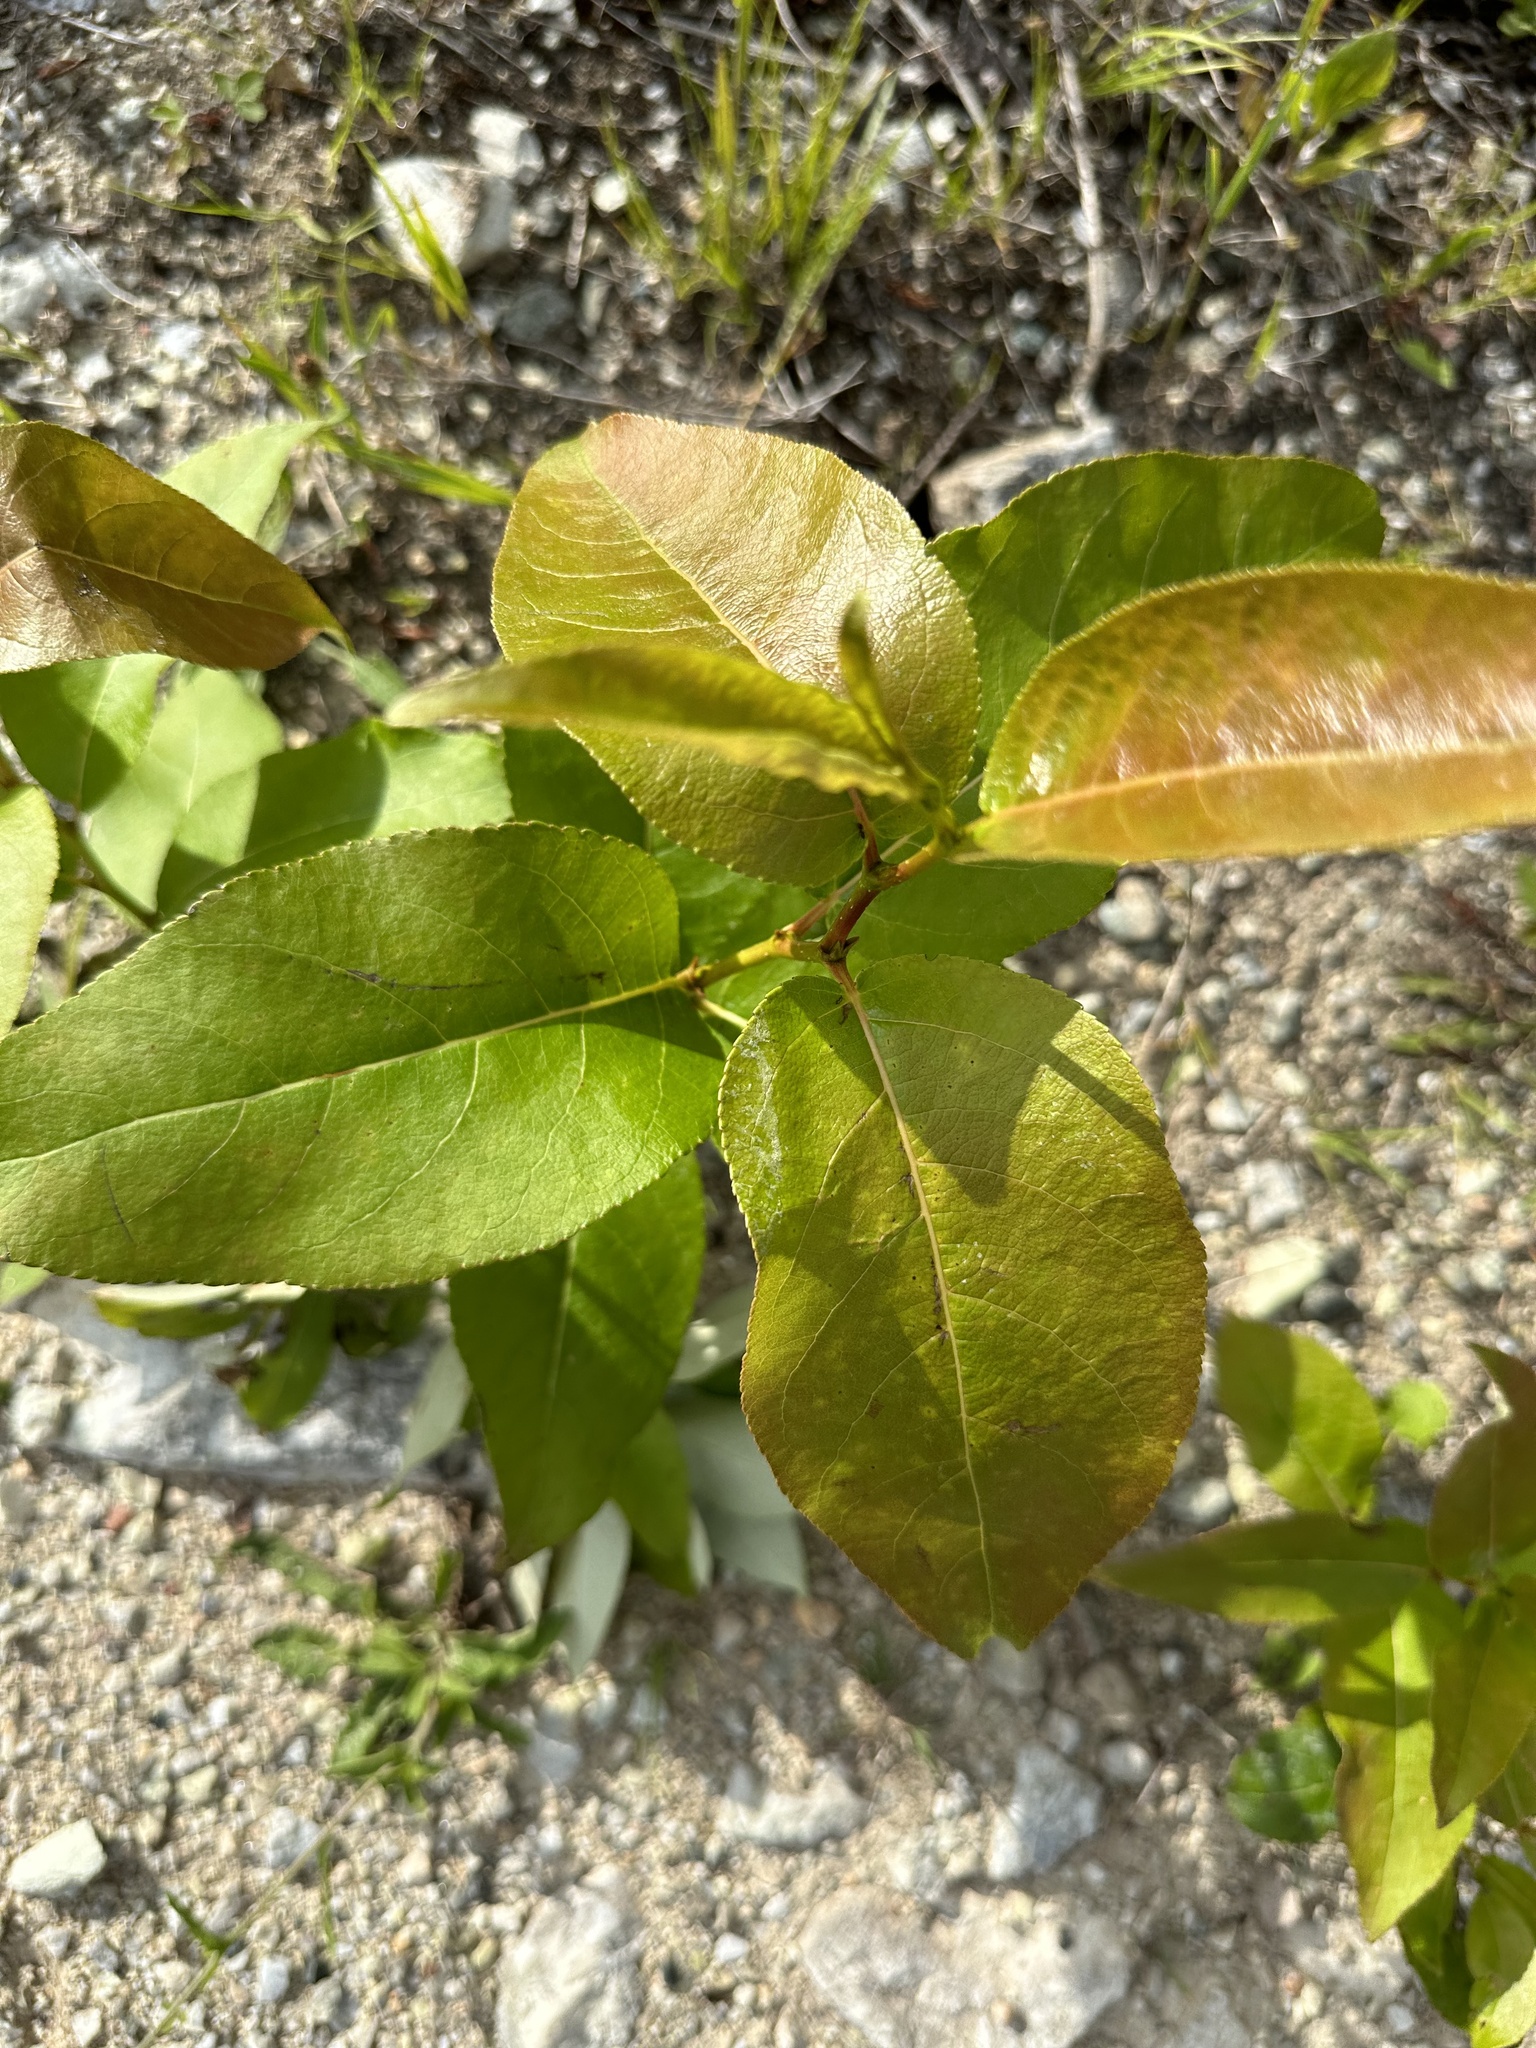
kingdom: Plantae
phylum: Tracheophyta
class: Magnoliopsida
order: Malpighiales
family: Salicaceae
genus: Populus
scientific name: Populus balsamifera
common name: Balsam poplar
